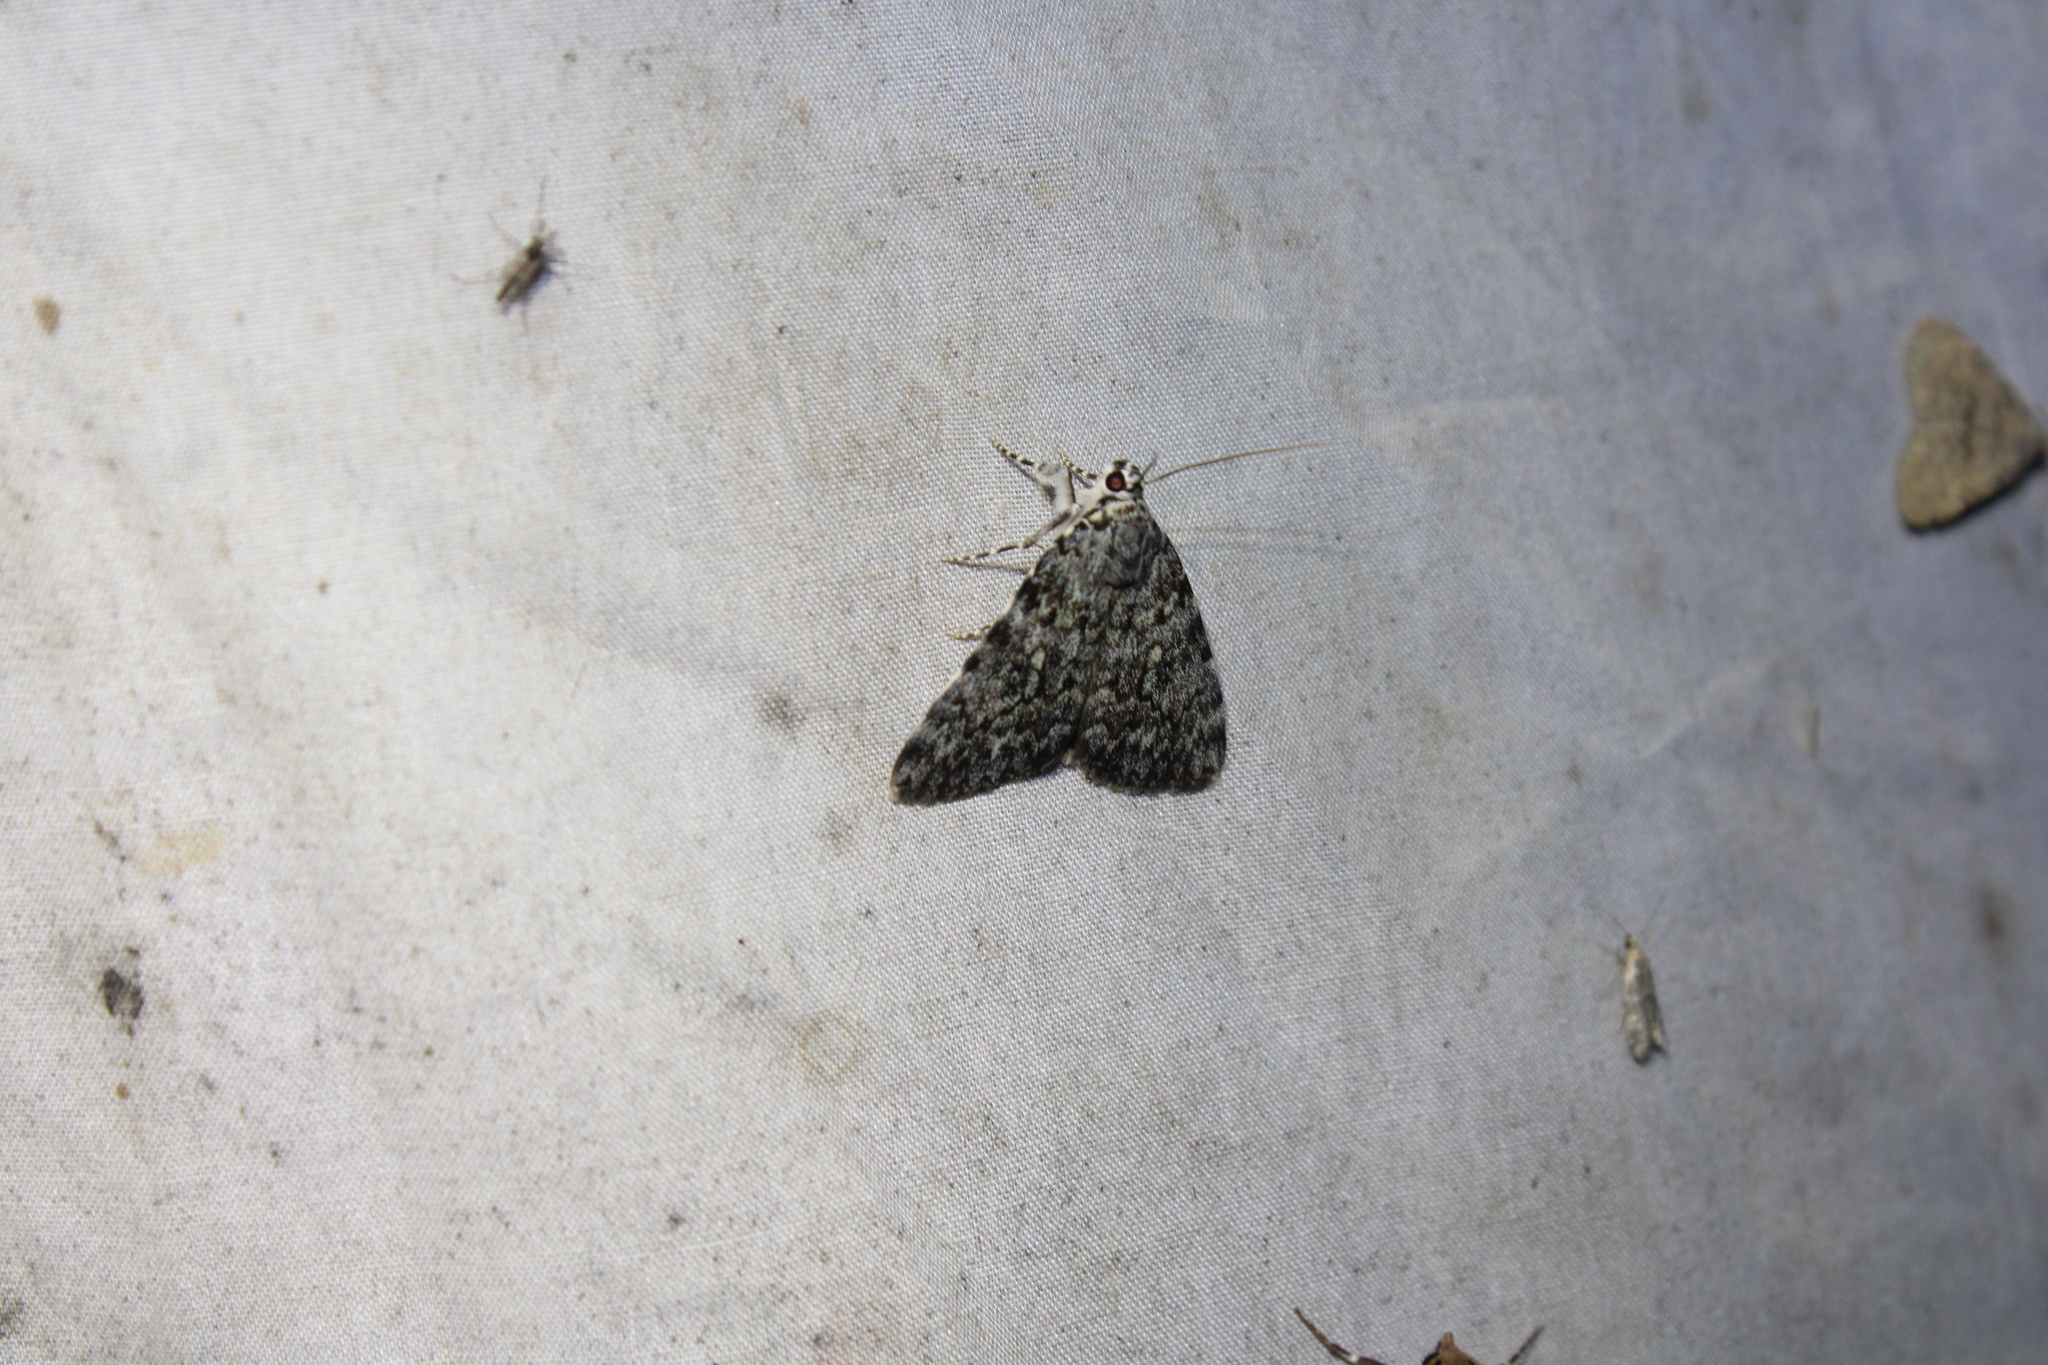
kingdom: Animalia
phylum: Arthropoda
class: Insecta
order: Lepidoptera
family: Erebidae
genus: Catocala
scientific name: Catocala lineella
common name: Little lined underwing
